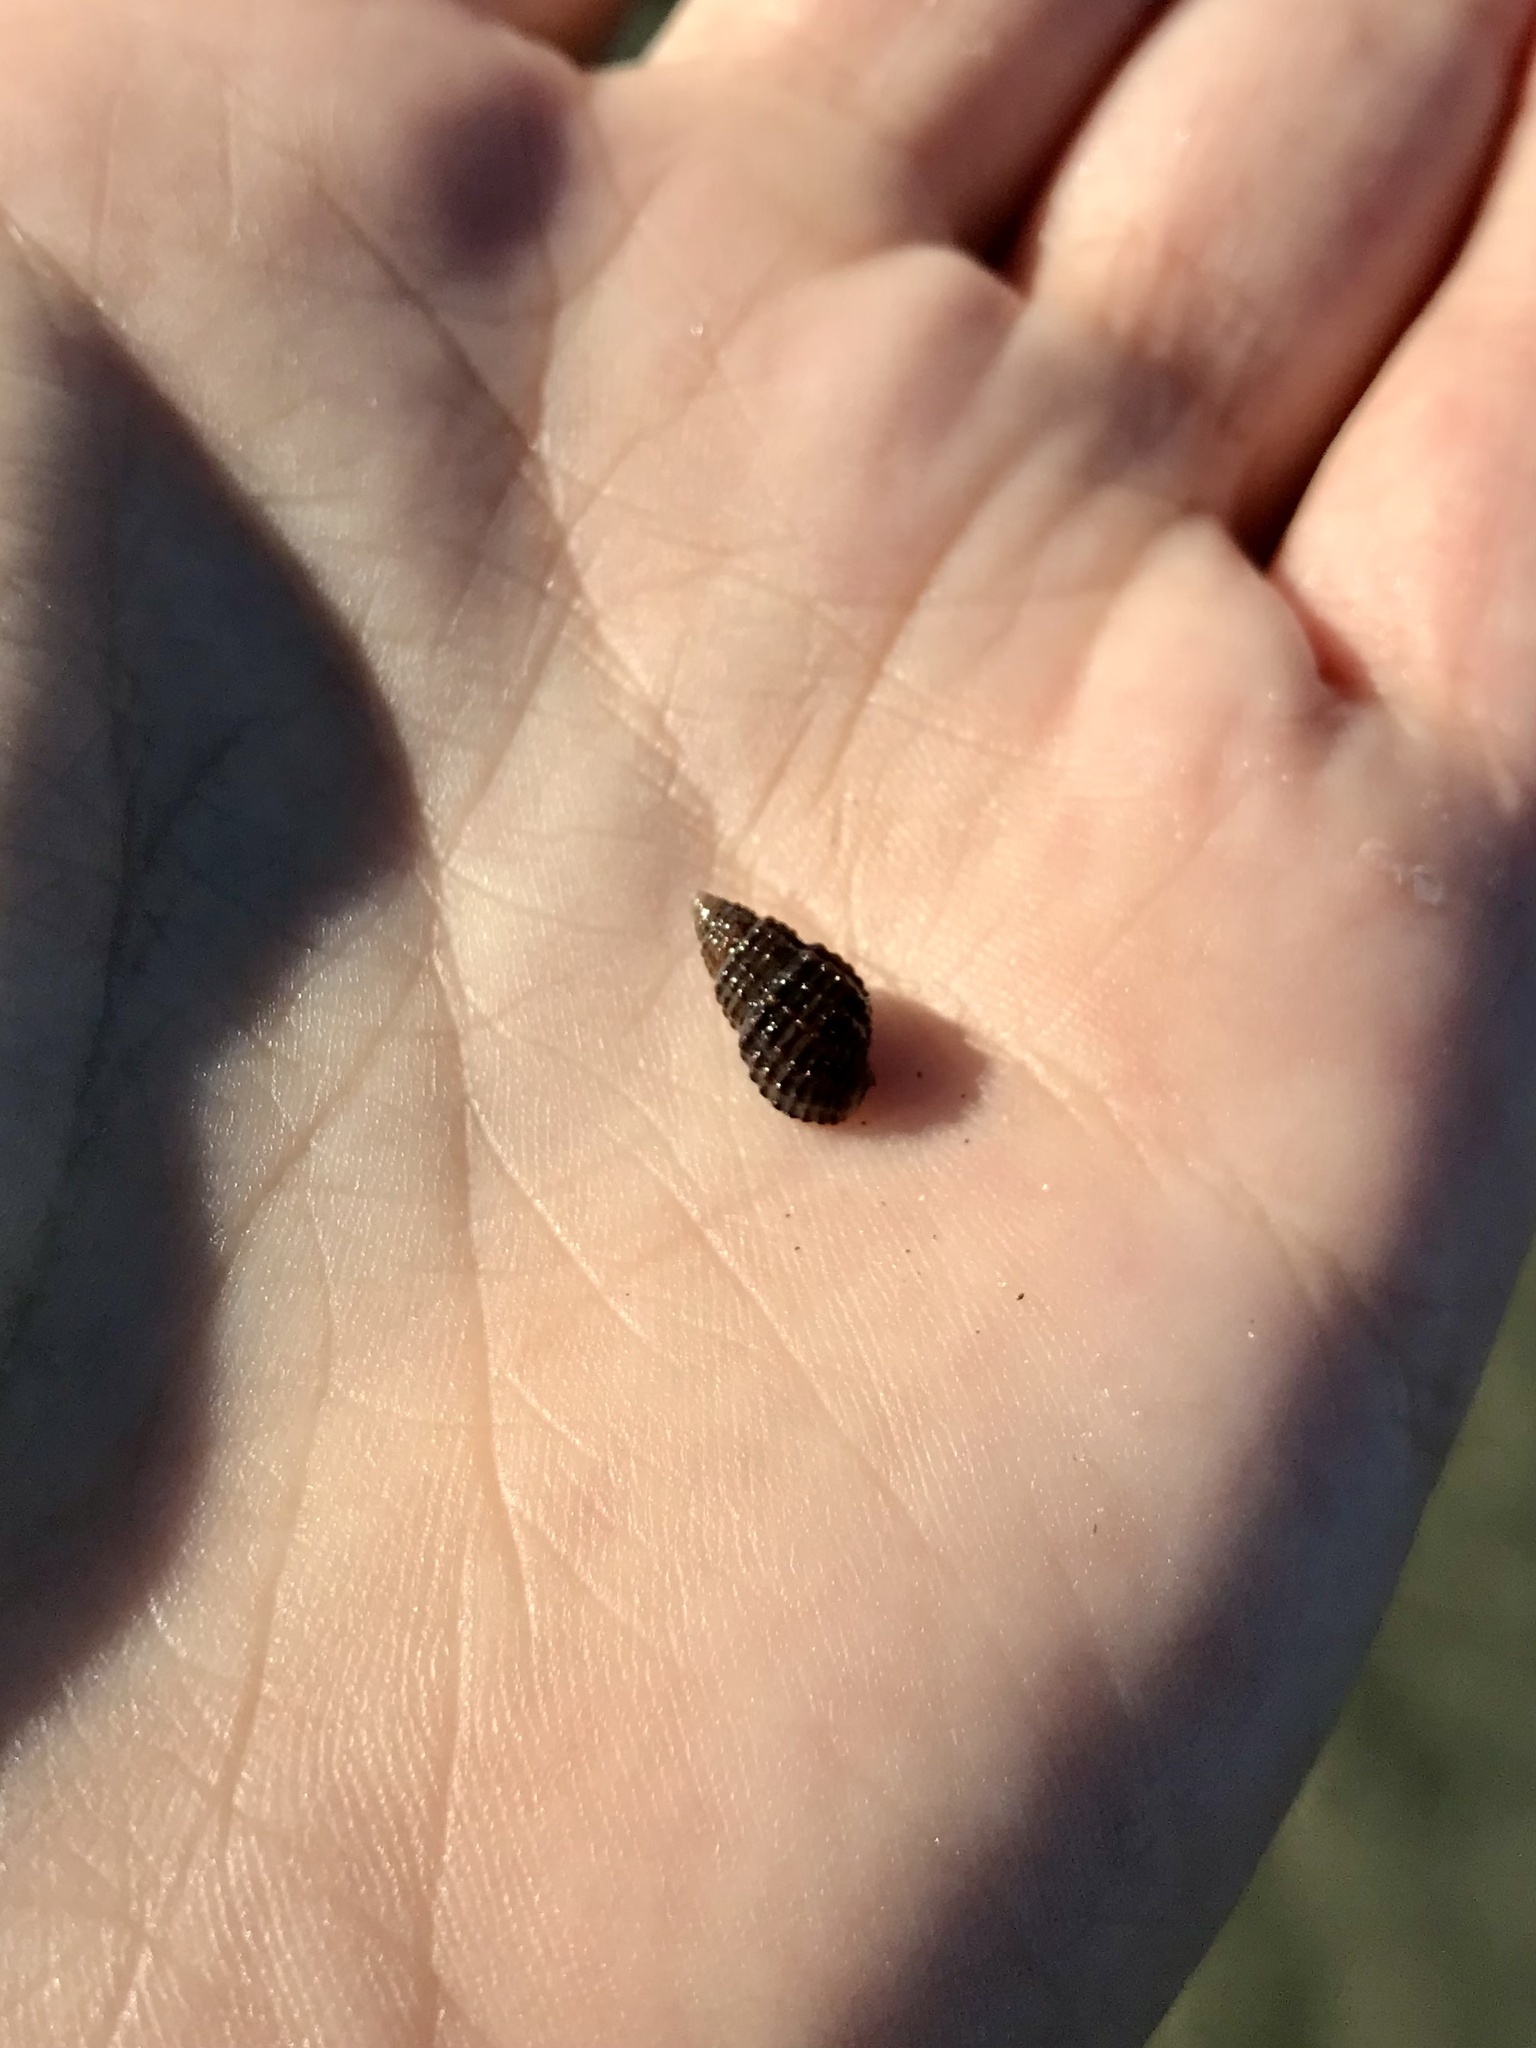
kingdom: Animalia
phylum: Mollusca
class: Gastropoda
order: Neogastropoda
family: Nassariidae
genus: Ilyanassa
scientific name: Ilyanassa trivittata
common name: Three-line mudsnail
